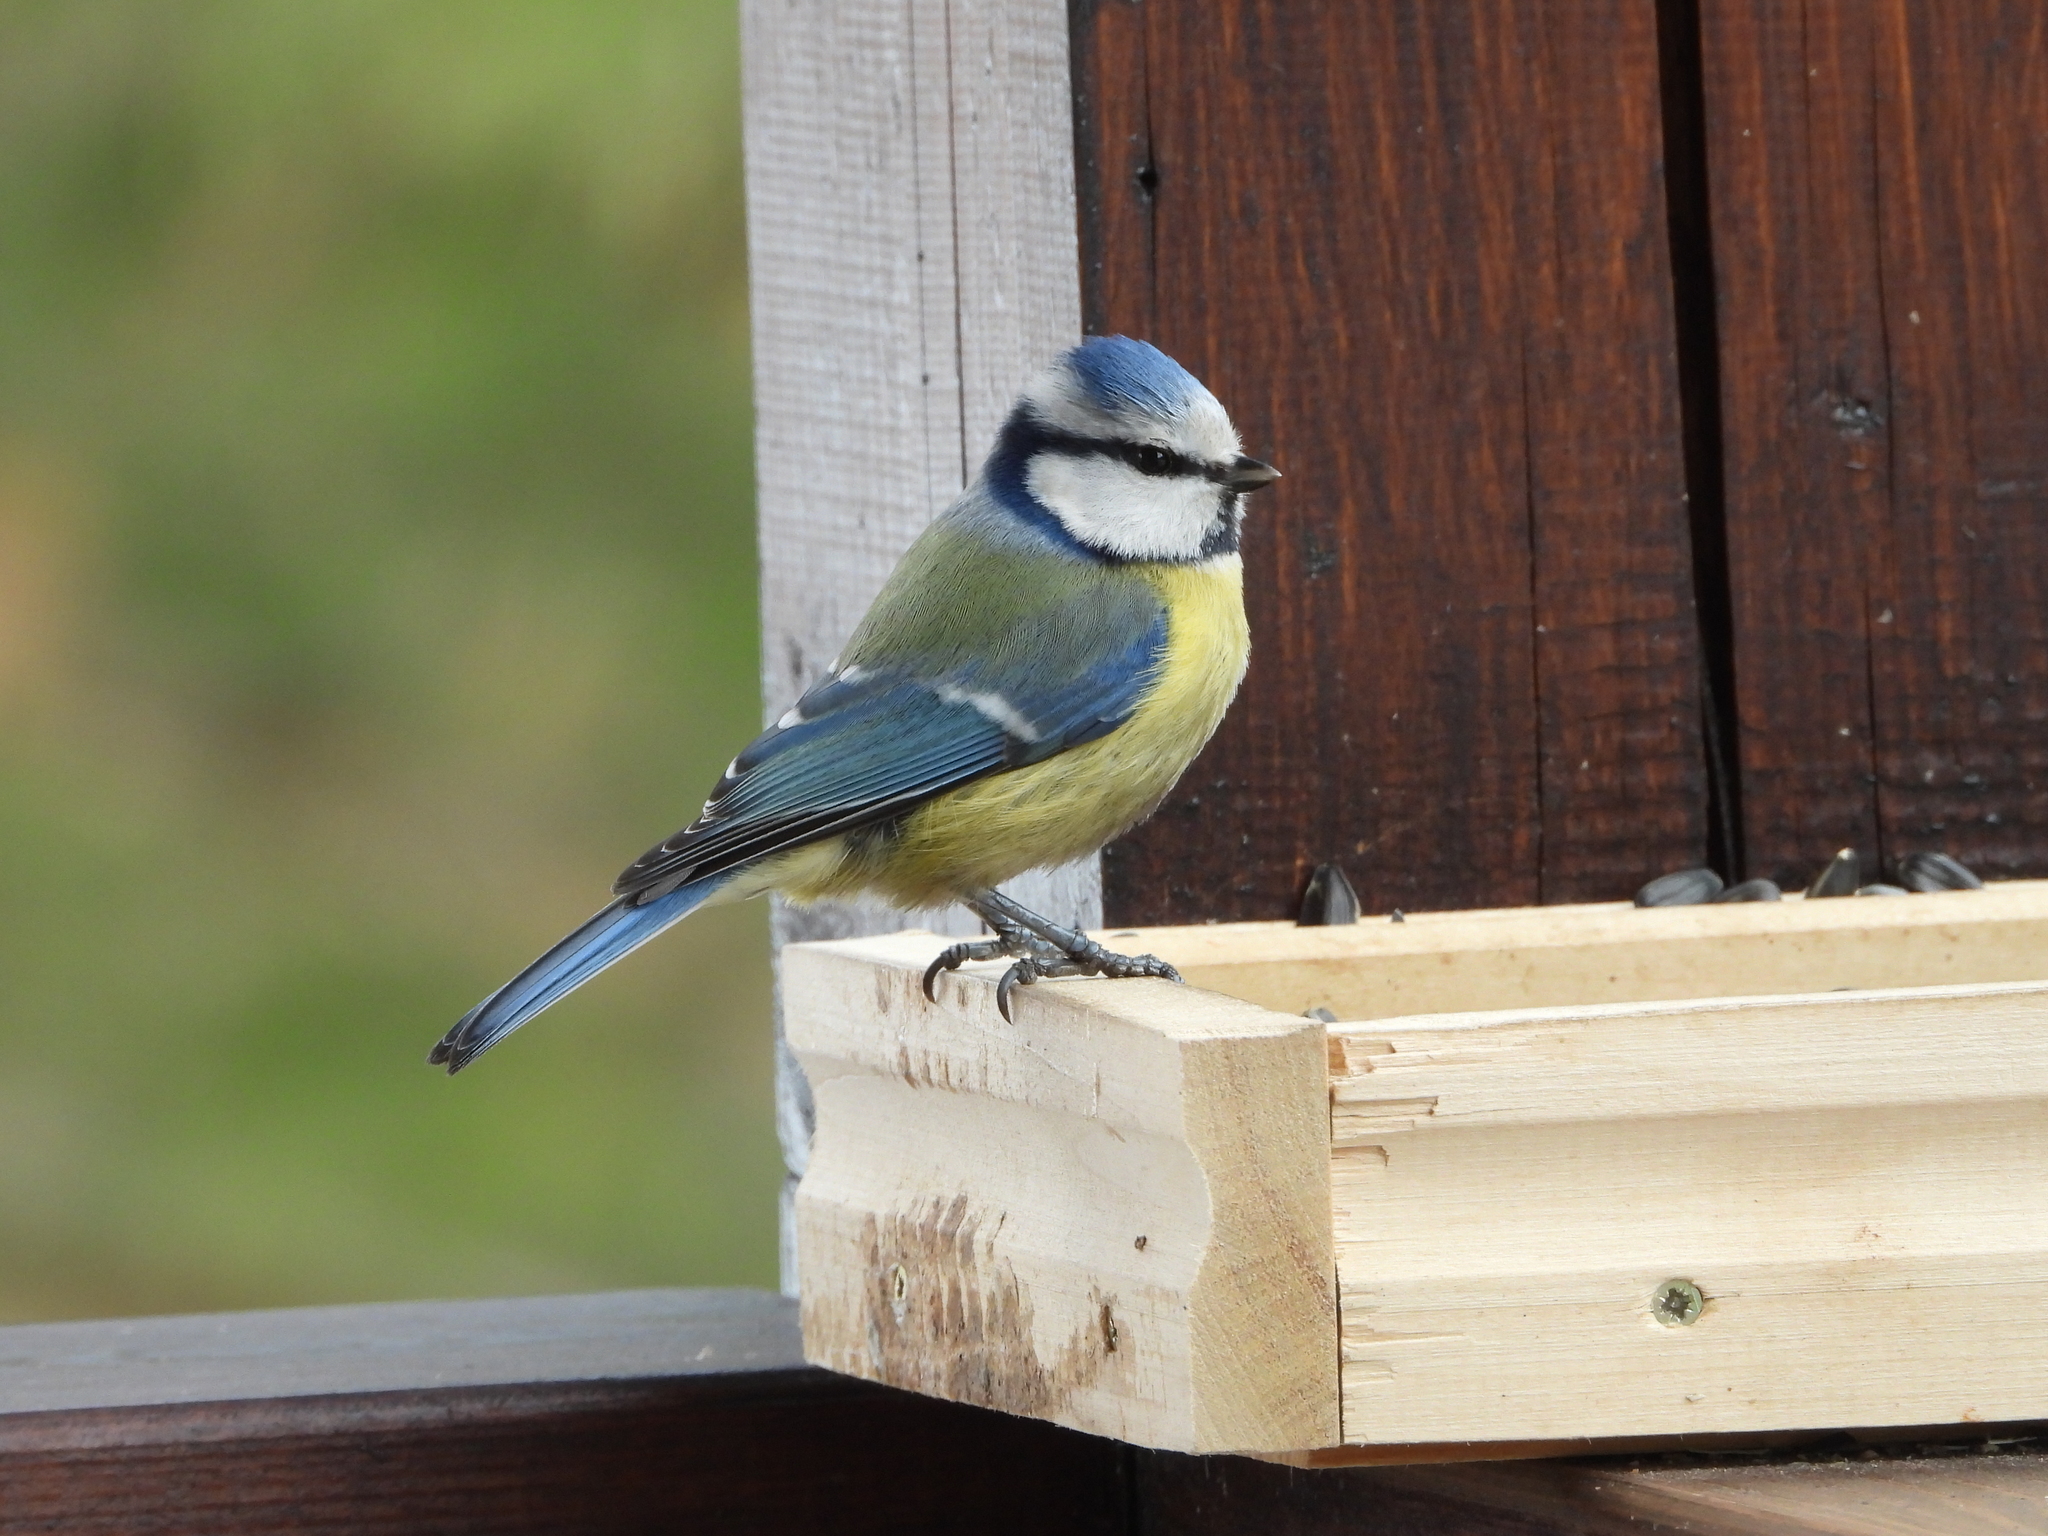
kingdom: Animalia
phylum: Chordata
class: Aves
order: Passeriformes
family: Paridae
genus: Cyanistes
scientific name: Cyanistes caeruleus
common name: Eurasian blue tit
